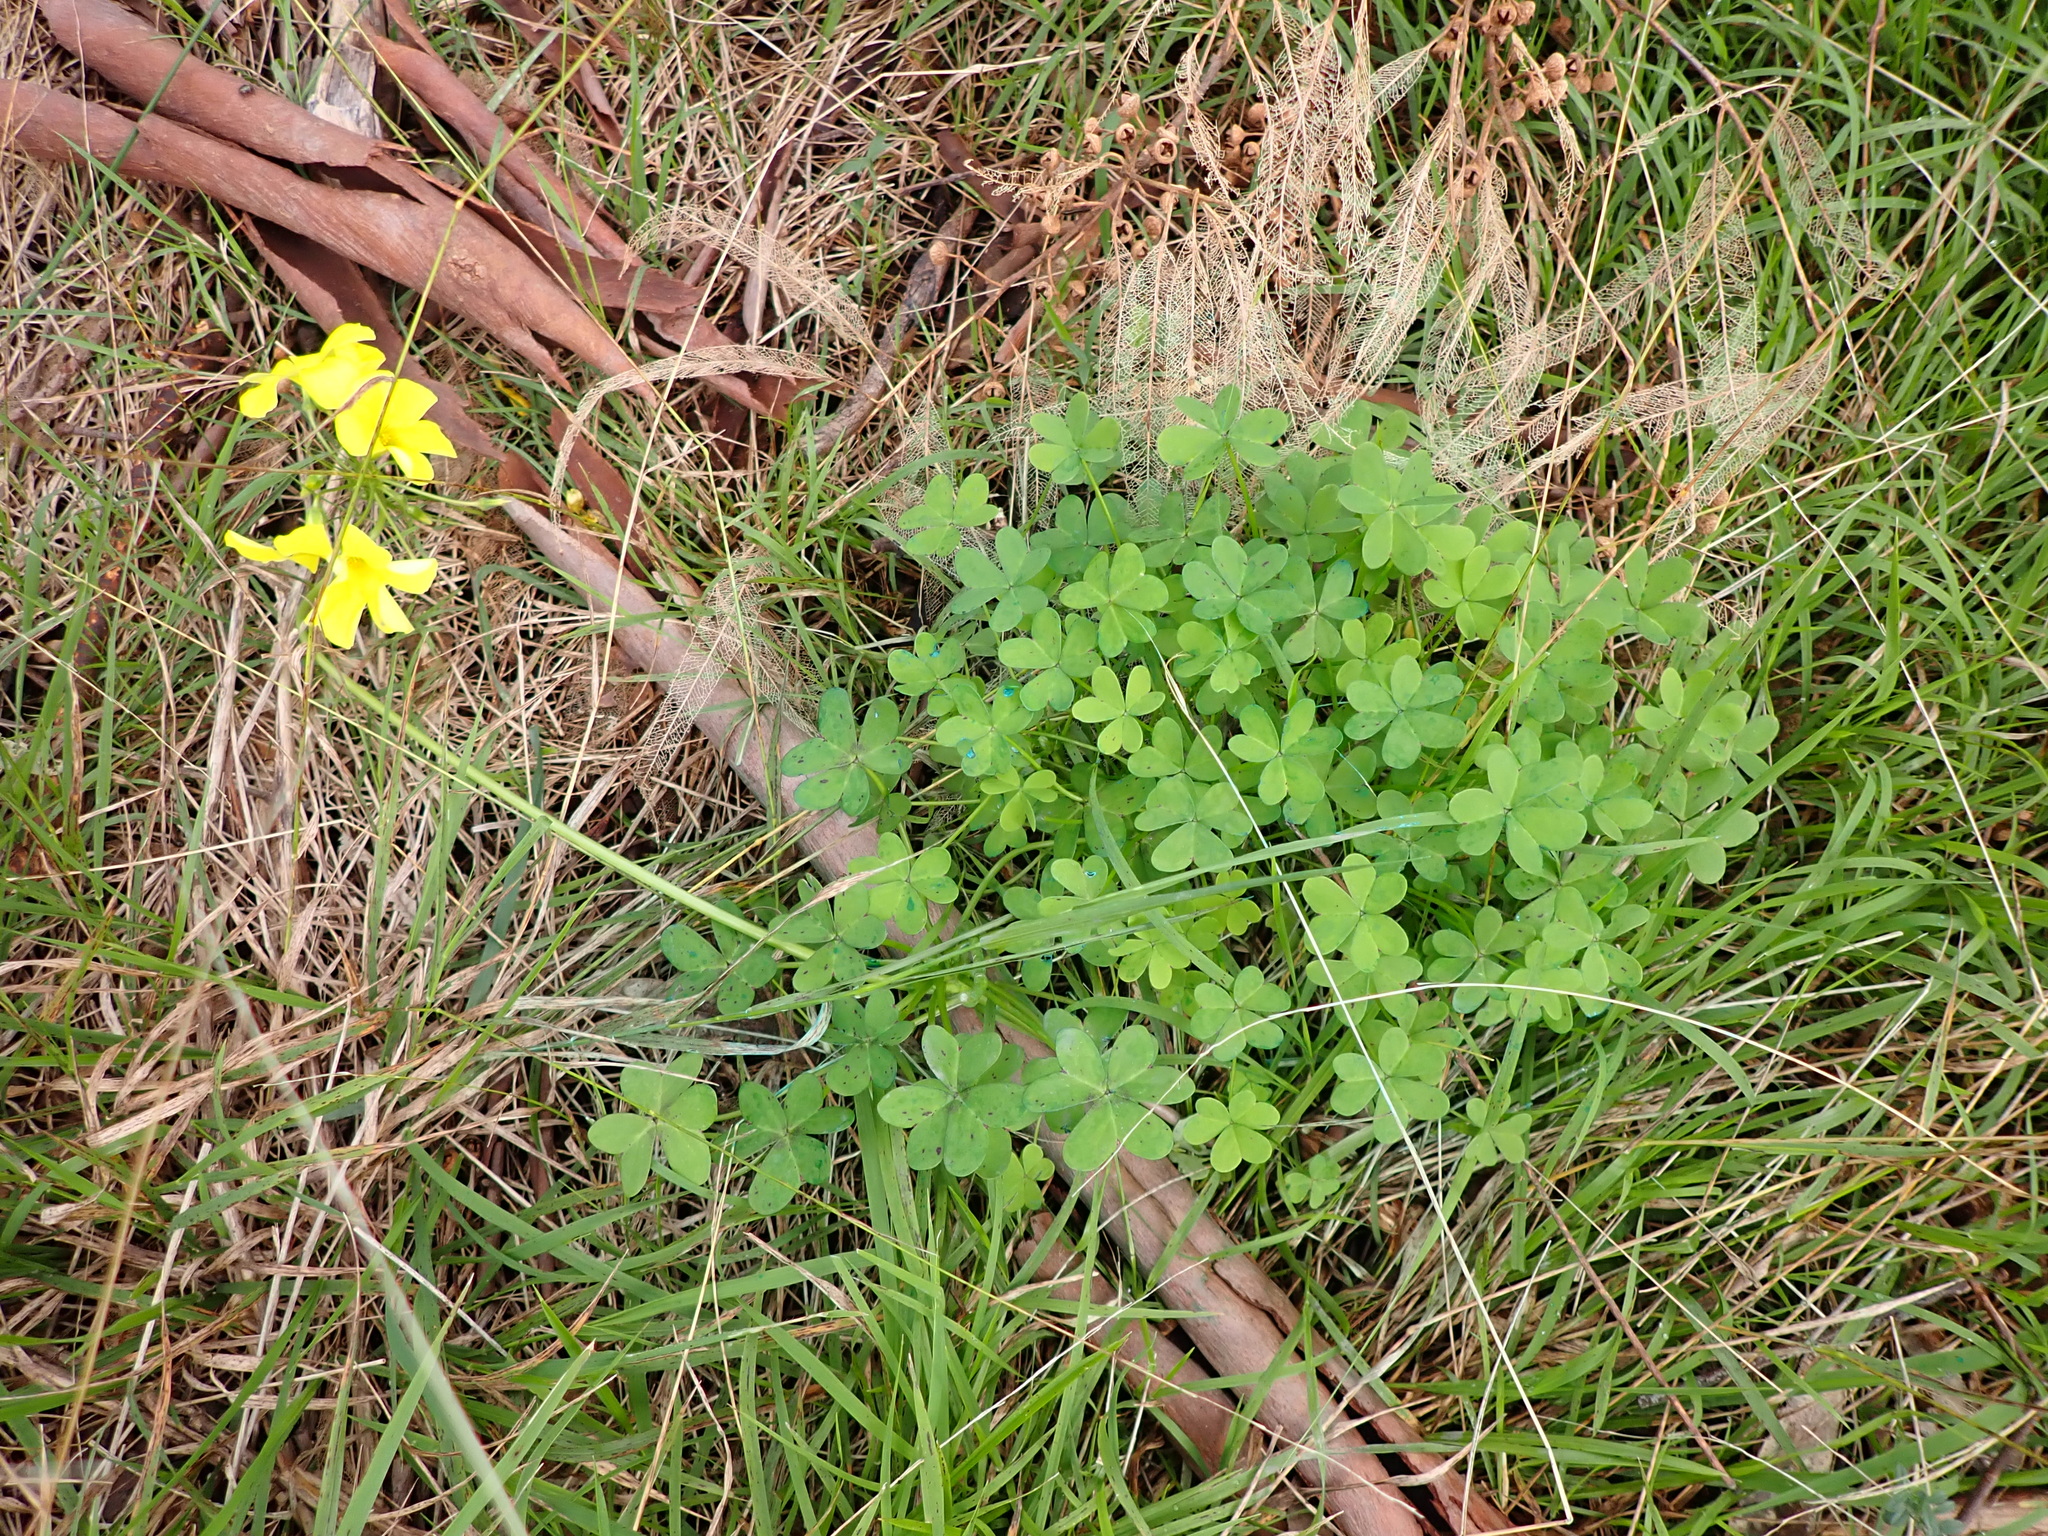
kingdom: Plantae
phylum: Tracheophyta
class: Magnoliopsida
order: Oxalidales
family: Oxalidaceae
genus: Oxalis
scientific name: Oxalis pes-caprae
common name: Bermuda-buttercup
